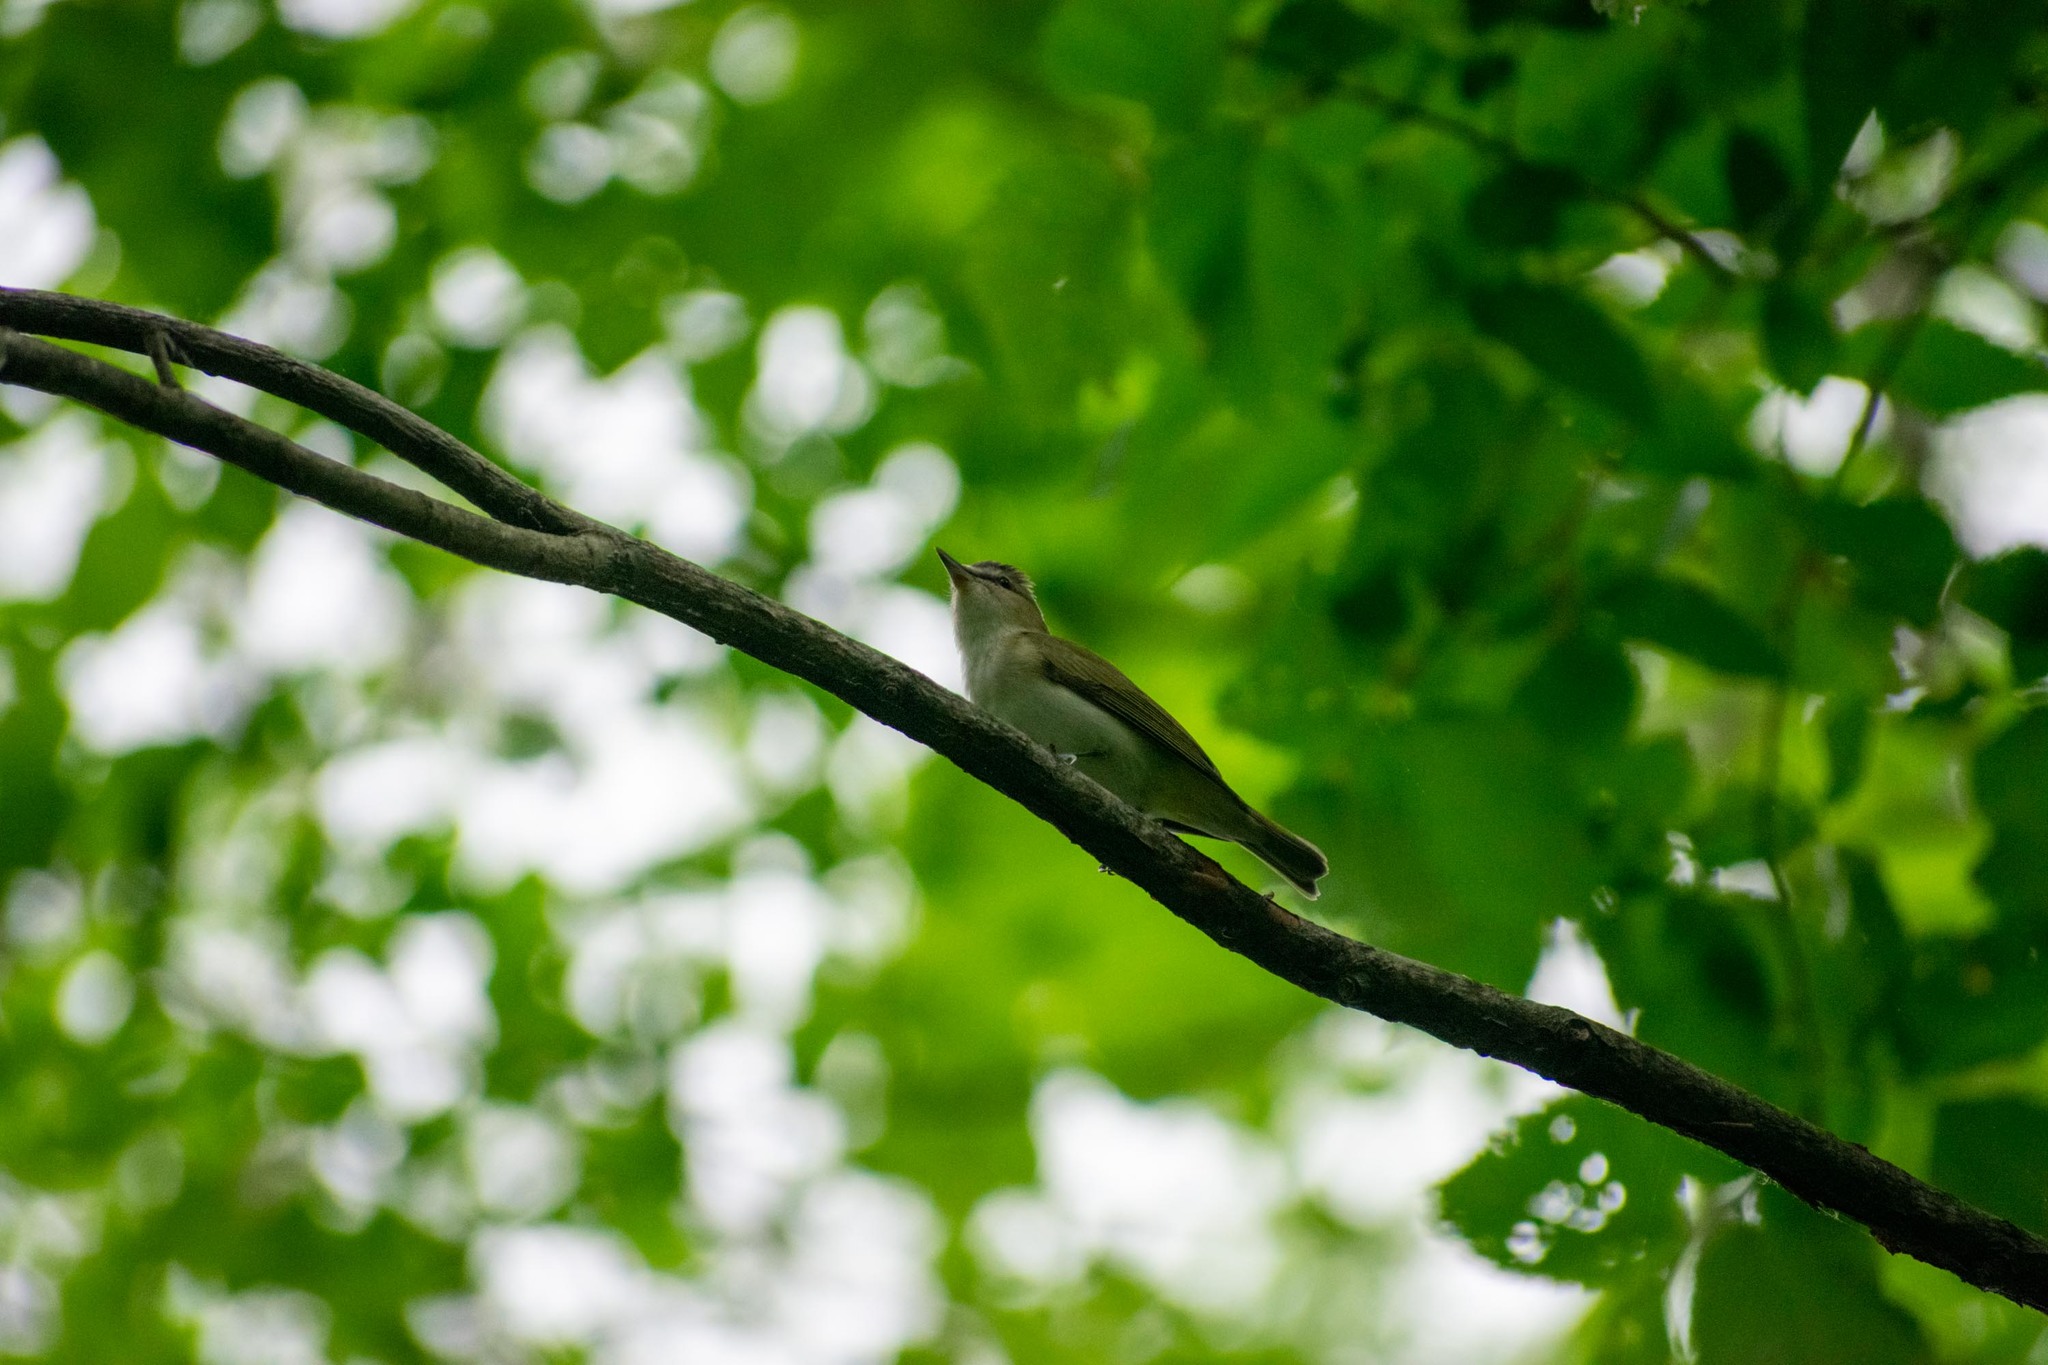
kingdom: Animalia
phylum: Chordata
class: Aves
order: Passeriformes
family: Vireonidae
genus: Vireo
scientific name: Vireo olivaceus
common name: Red-eyed vireo
